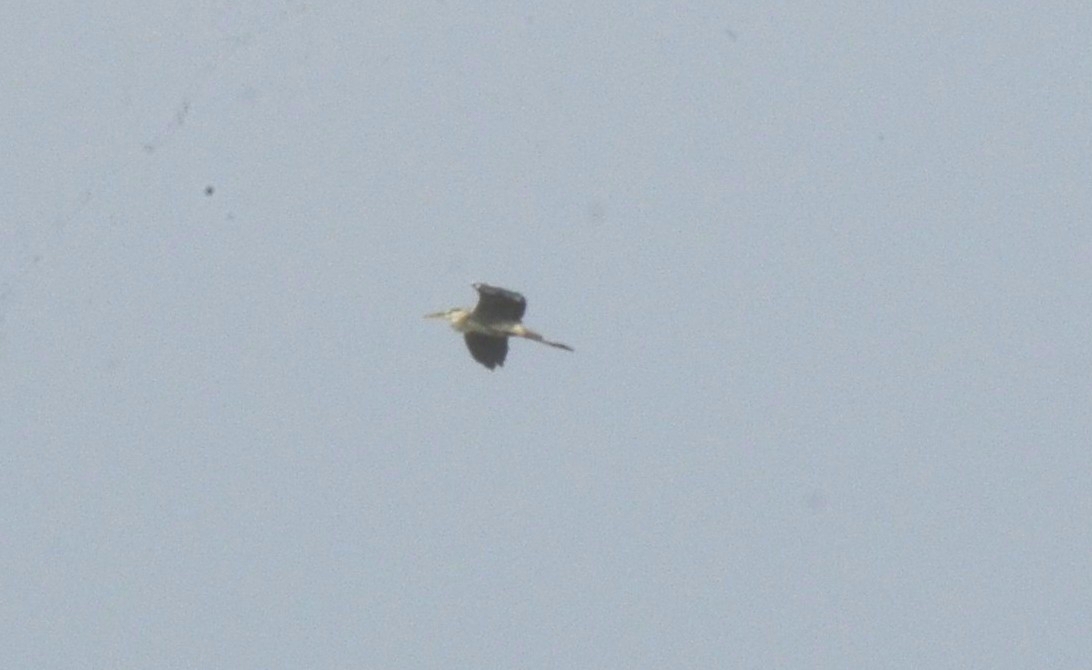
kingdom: Animalia
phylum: Chordata
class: Aves
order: Pelecaniformes
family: Ardeidae
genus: Ardea
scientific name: Ardea cinerea
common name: Grey heron
